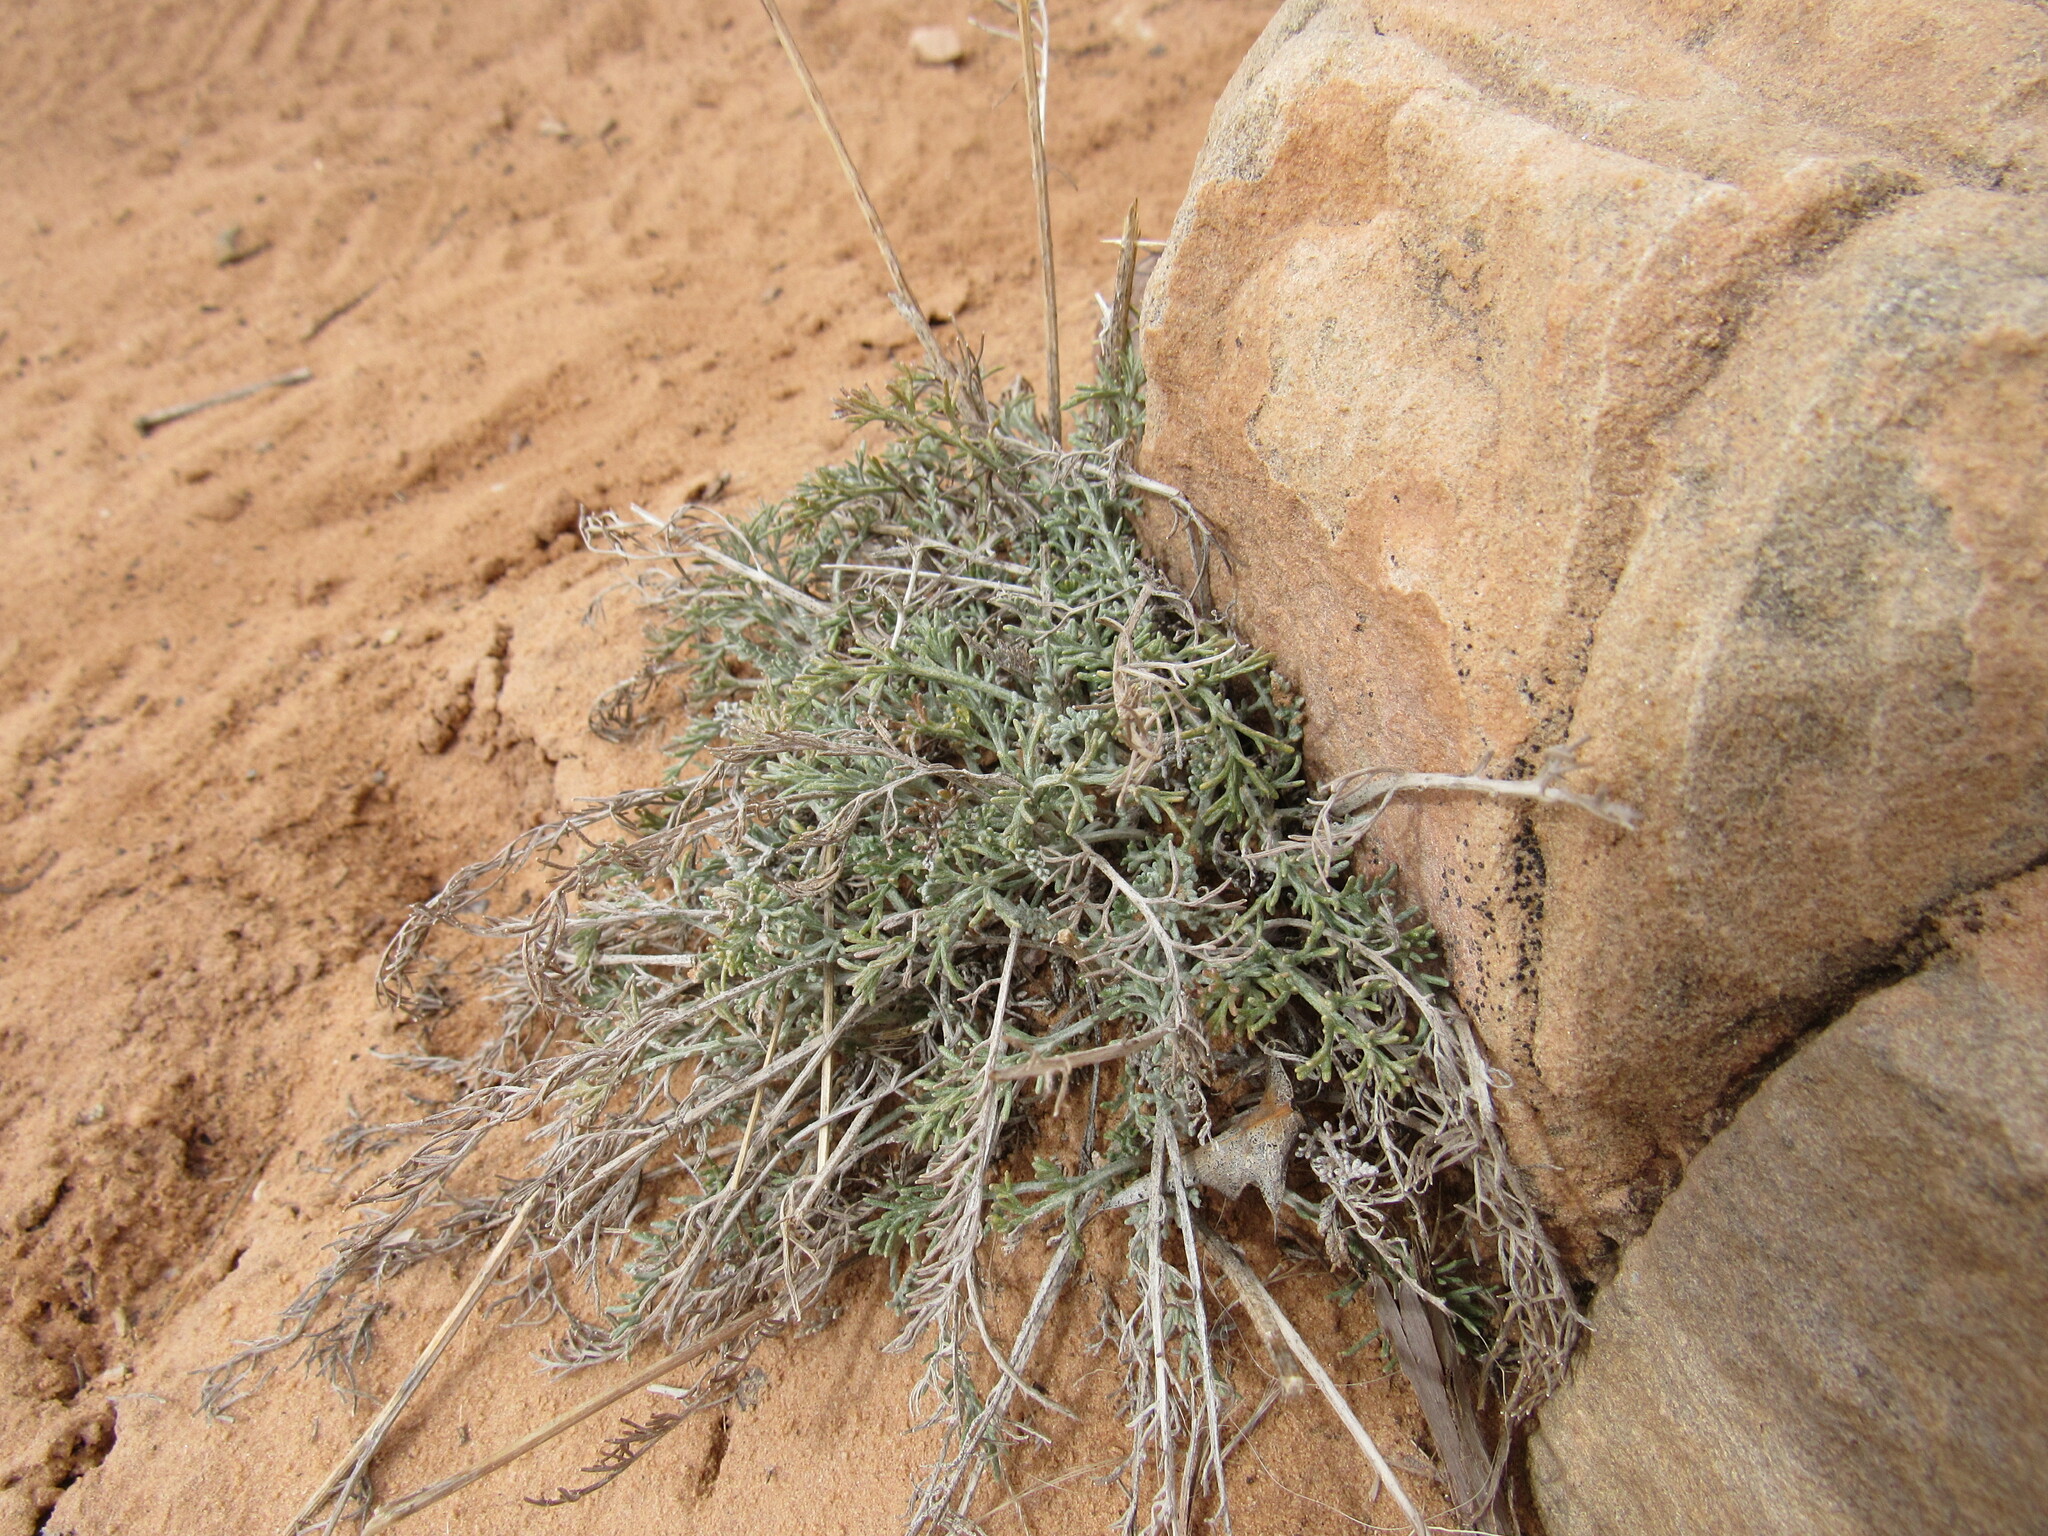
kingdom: Plantae
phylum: Tracheophyta
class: Magnoliopsida
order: Asterales
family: Asteraceae
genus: Hymenopappus
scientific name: Hymenopappus filifolius
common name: Columbia cutleaf
